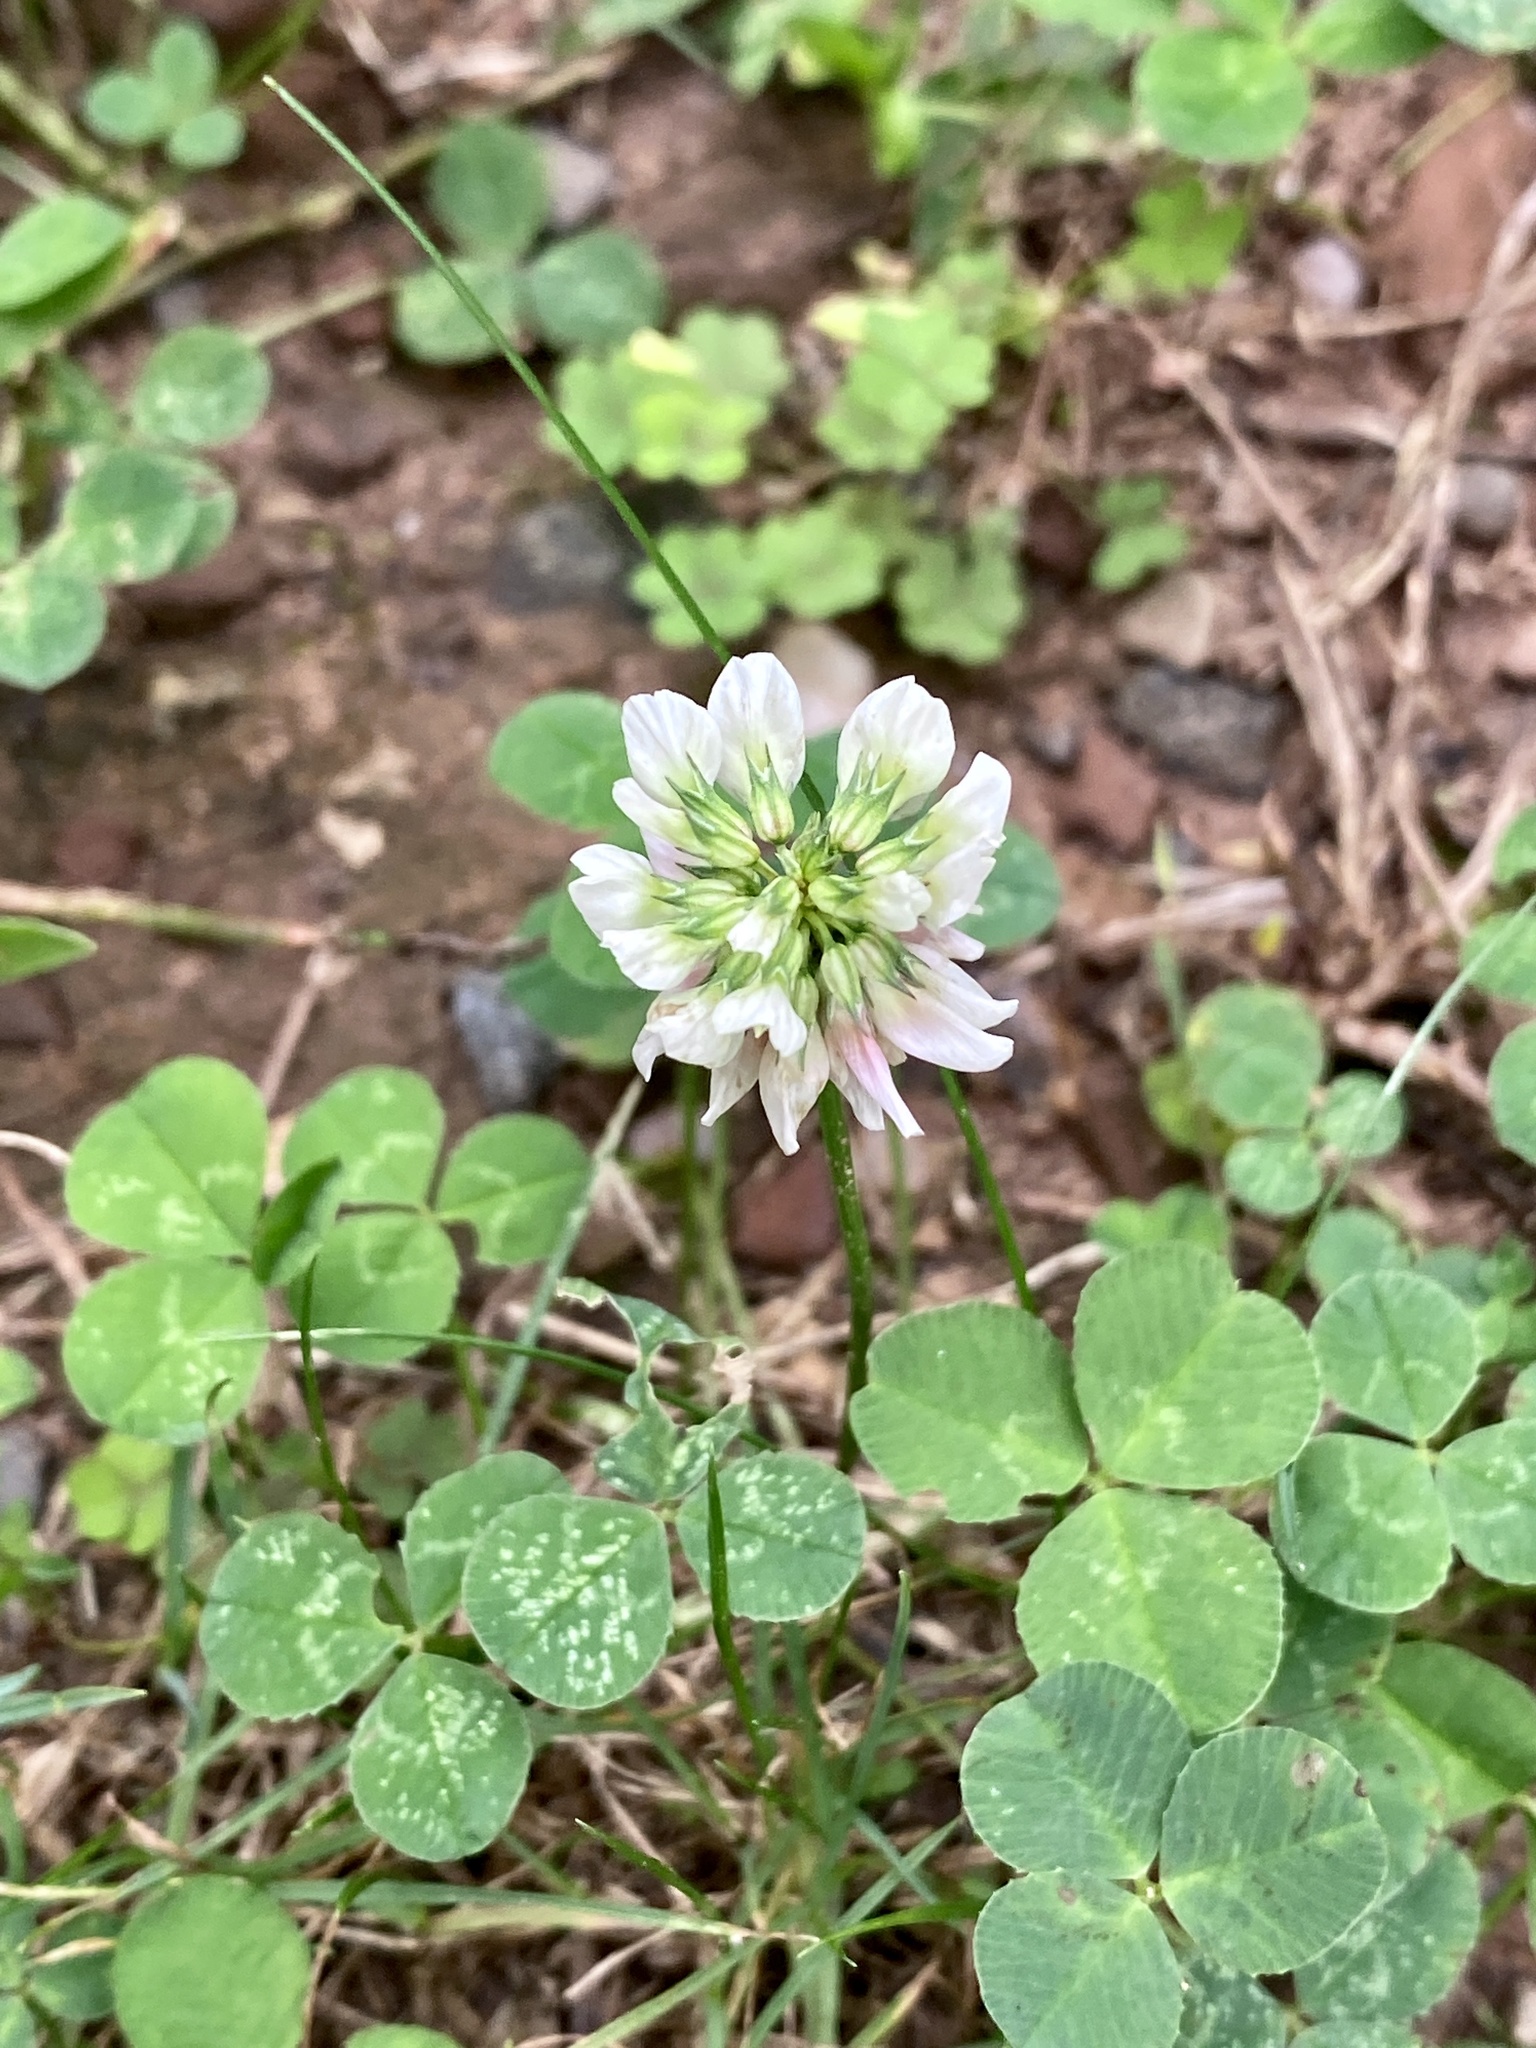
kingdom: Plantae
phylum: Tracheophyta
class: Magnoliopsida
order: Fabales
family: Fabaceae
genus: Trifolium
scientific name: Trifolium repens
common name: White clover
